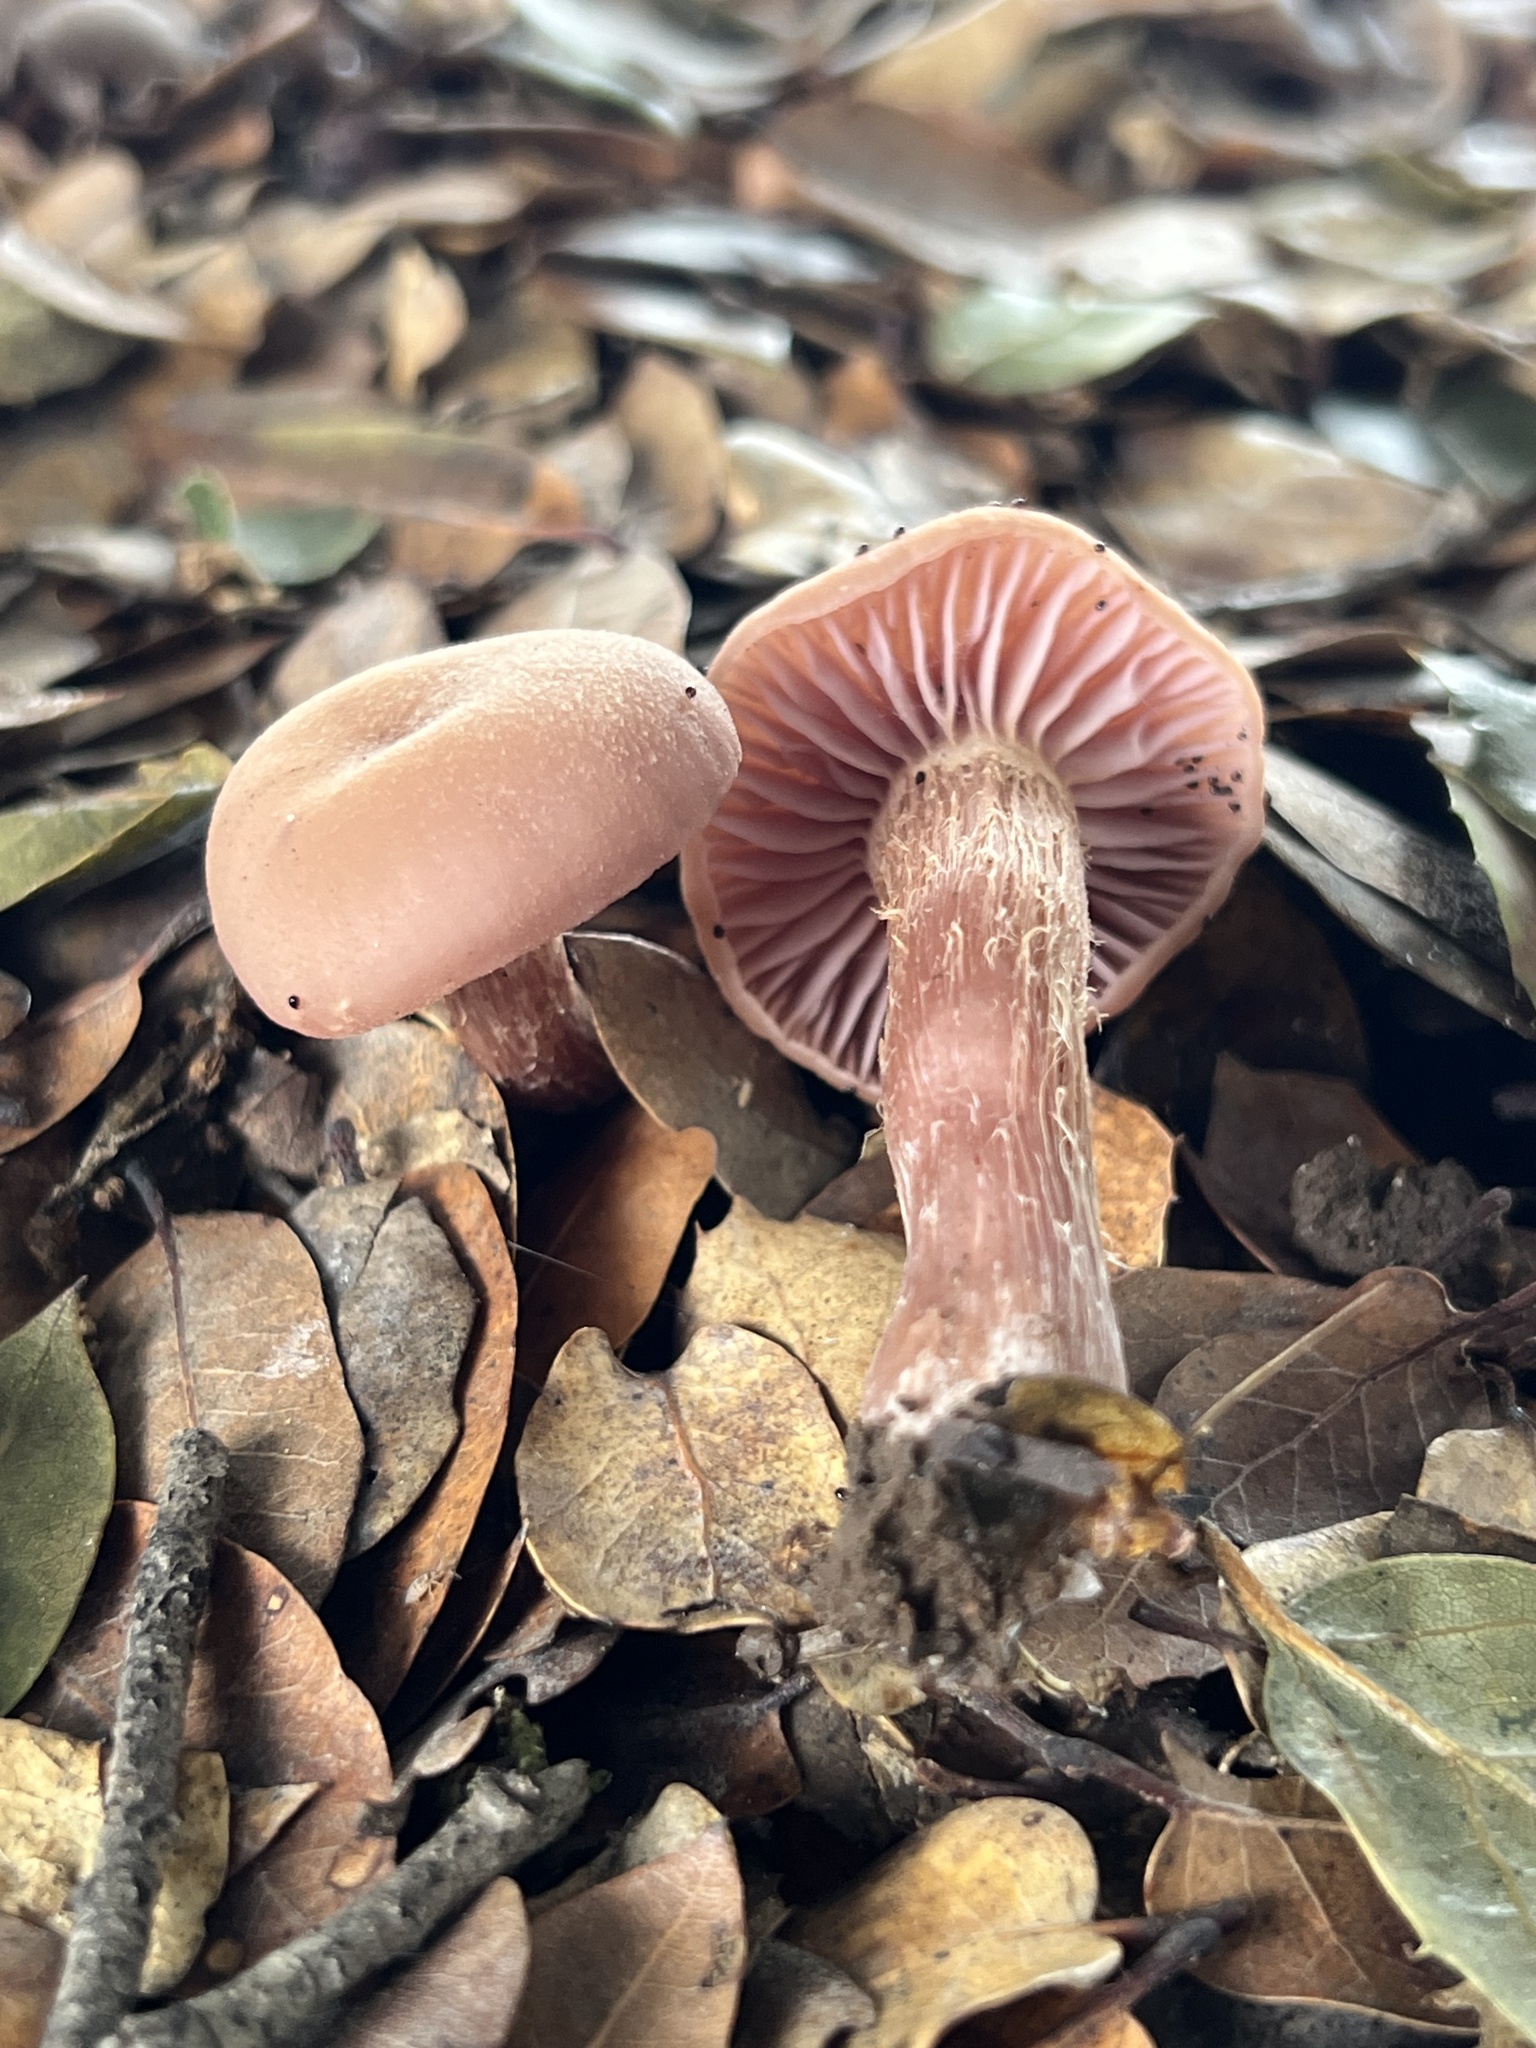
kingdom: Fungi
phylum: Basidiomycota
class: Agaricomycetes
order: Agaricales
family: Hydnangiaceae
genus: Laccaria
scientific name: Laccaria amethysteo-occidentalis
